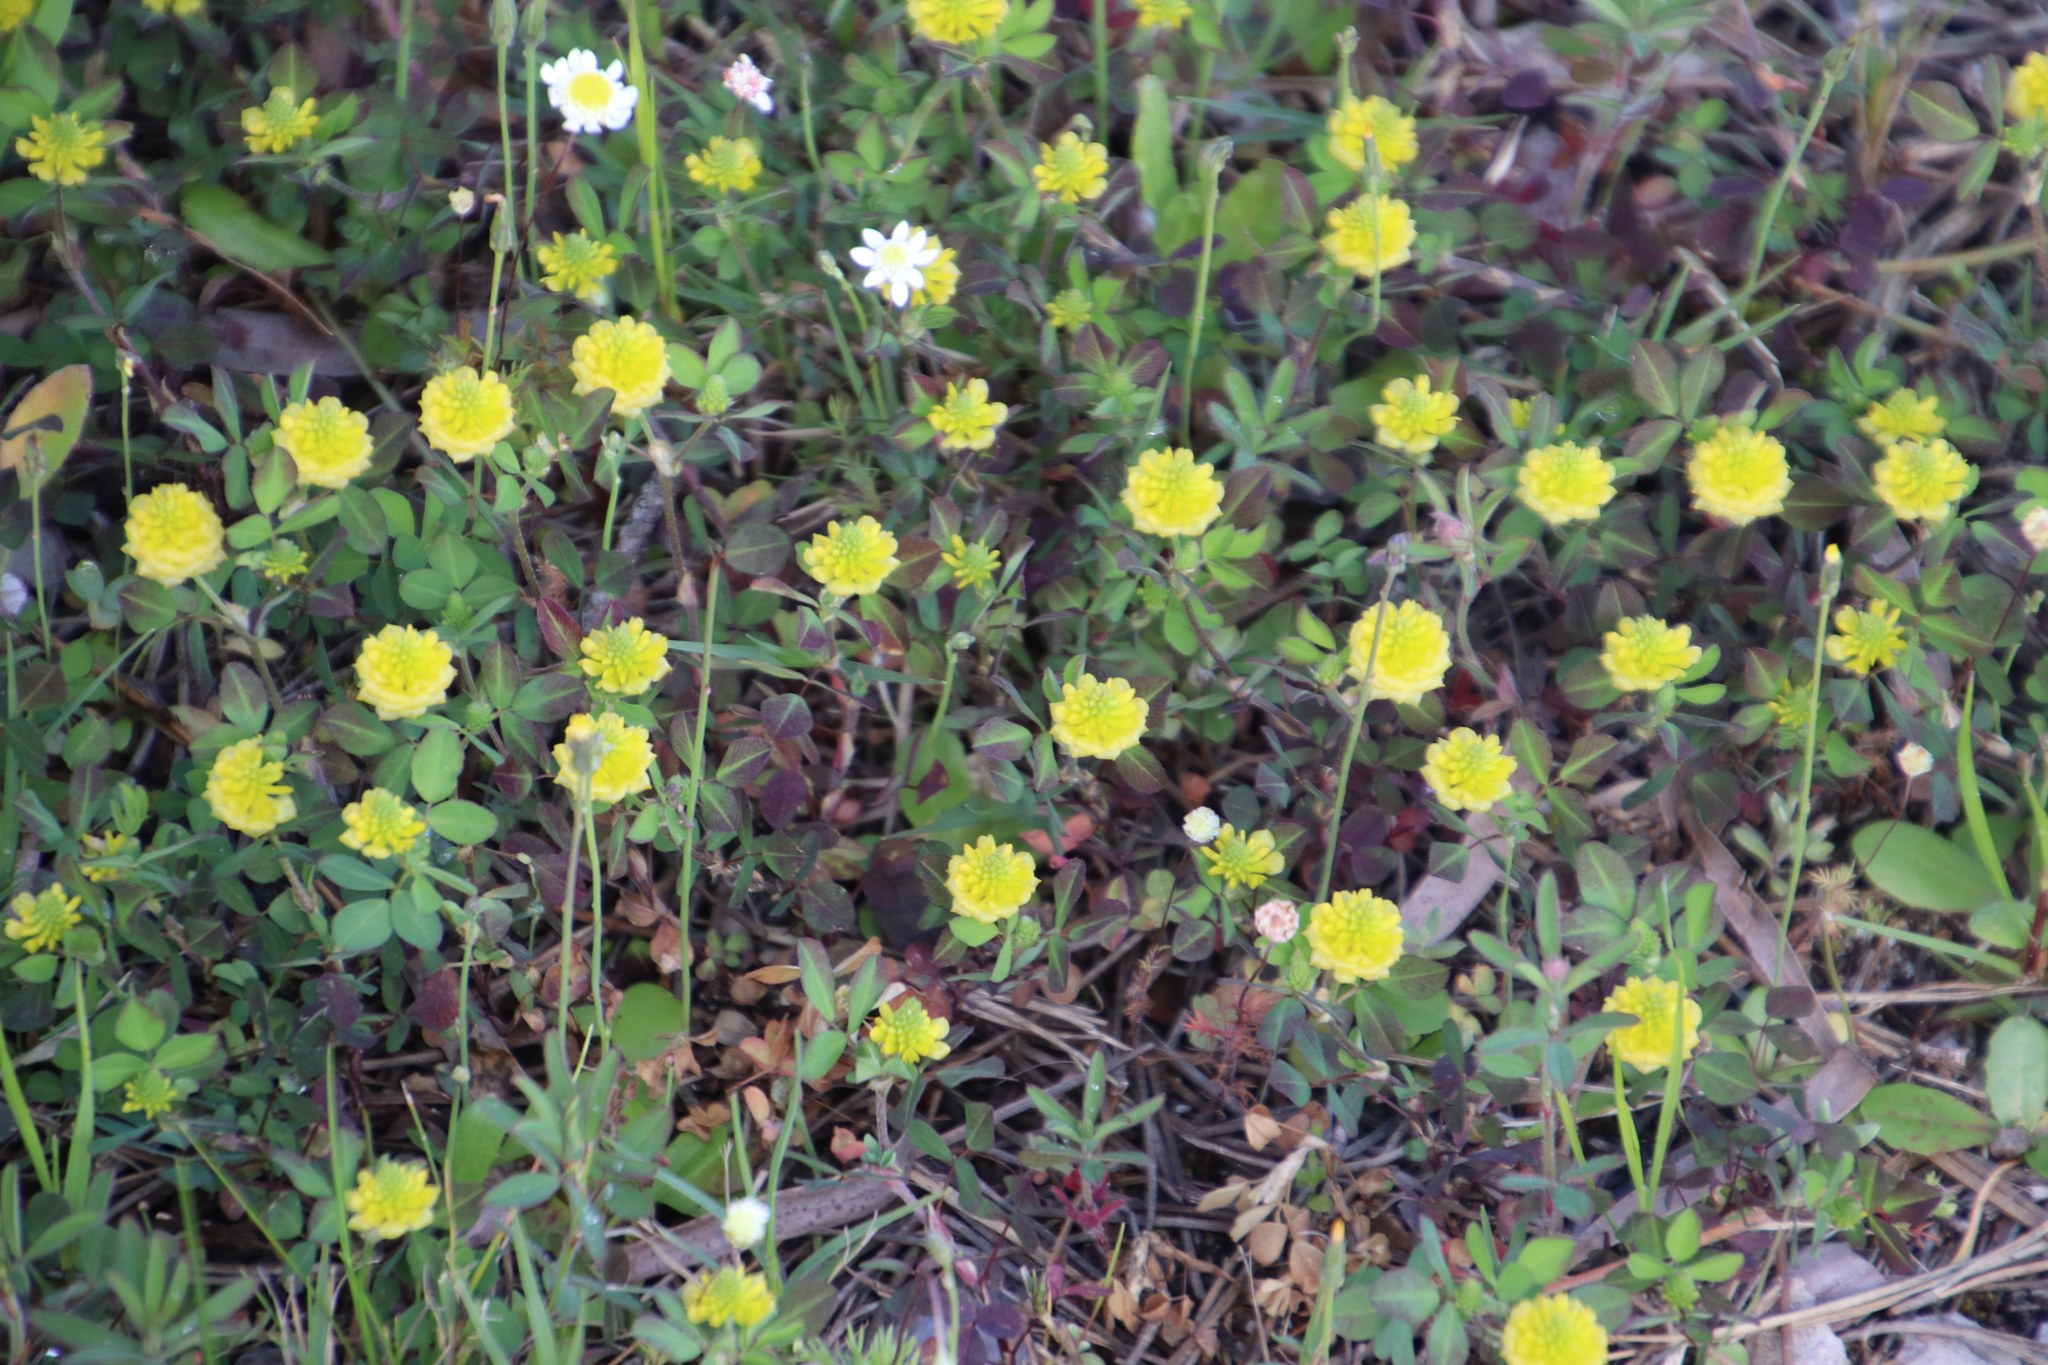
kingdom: Plantae
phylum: Tracheophyta
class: Magnoliopsida
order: Fabales
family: Fabaceae
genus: Trifolium
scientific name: Trifolium campestre
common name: Field clover
